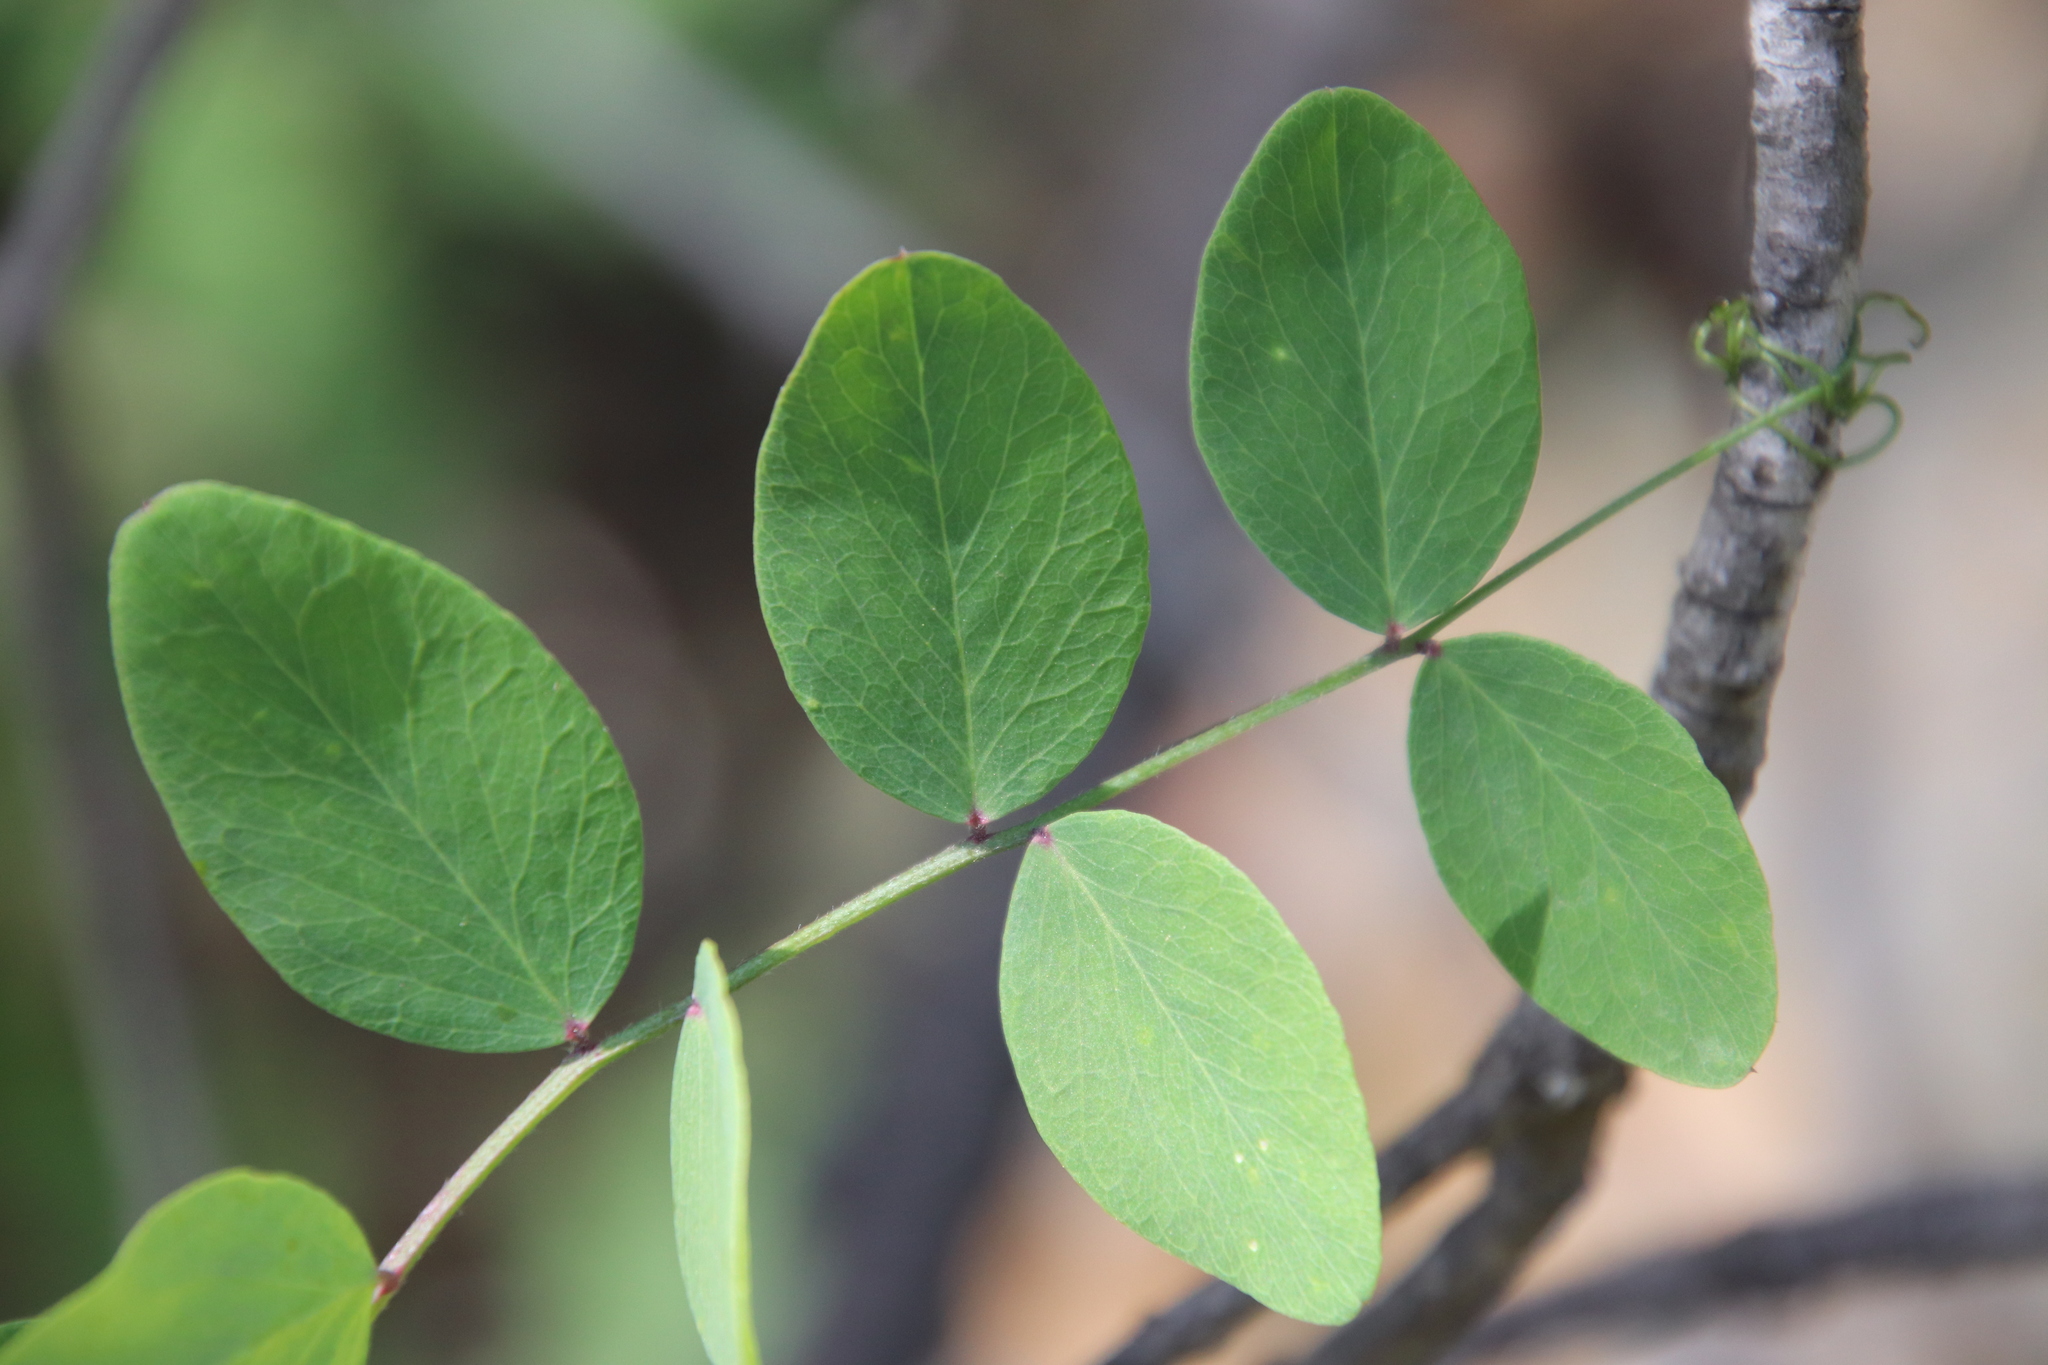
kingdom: Plantae
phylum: Tracheophyta
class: Magnoliopsida
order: Fabales
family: Fabaceae
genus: Lathyrus
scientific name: Lathyrus vestitus
